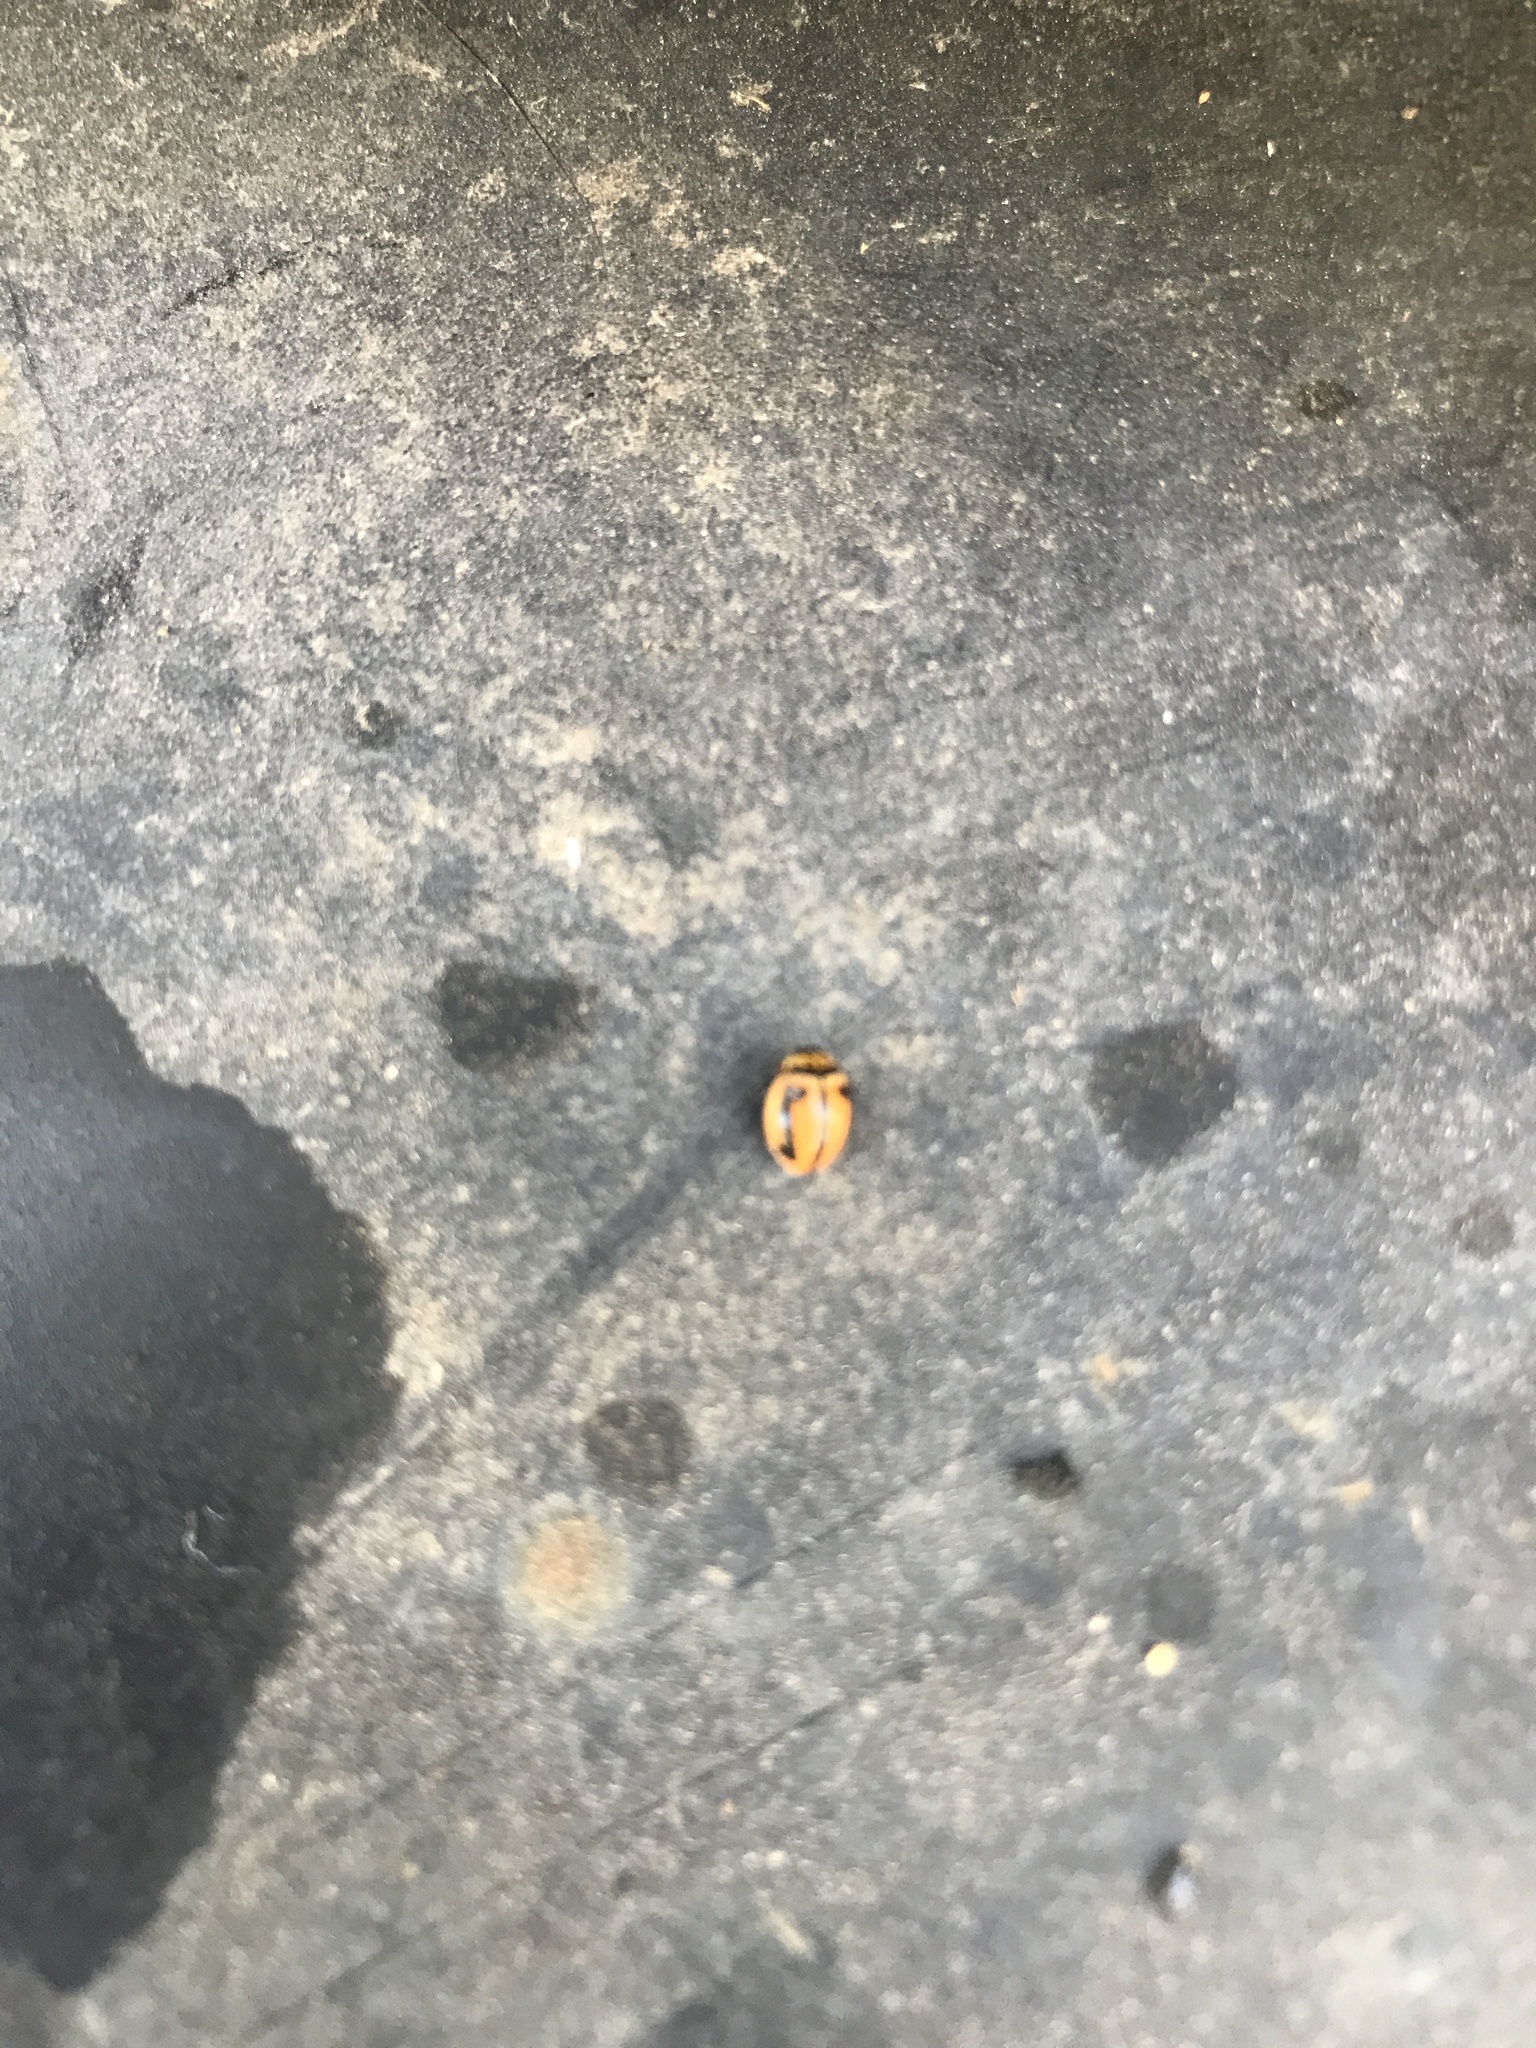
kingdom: Animalia
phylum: Arthropoda
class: Insecta
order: Coleoptera
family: Coccinellidae
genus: Micraspis
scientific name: Micraspis frenata
